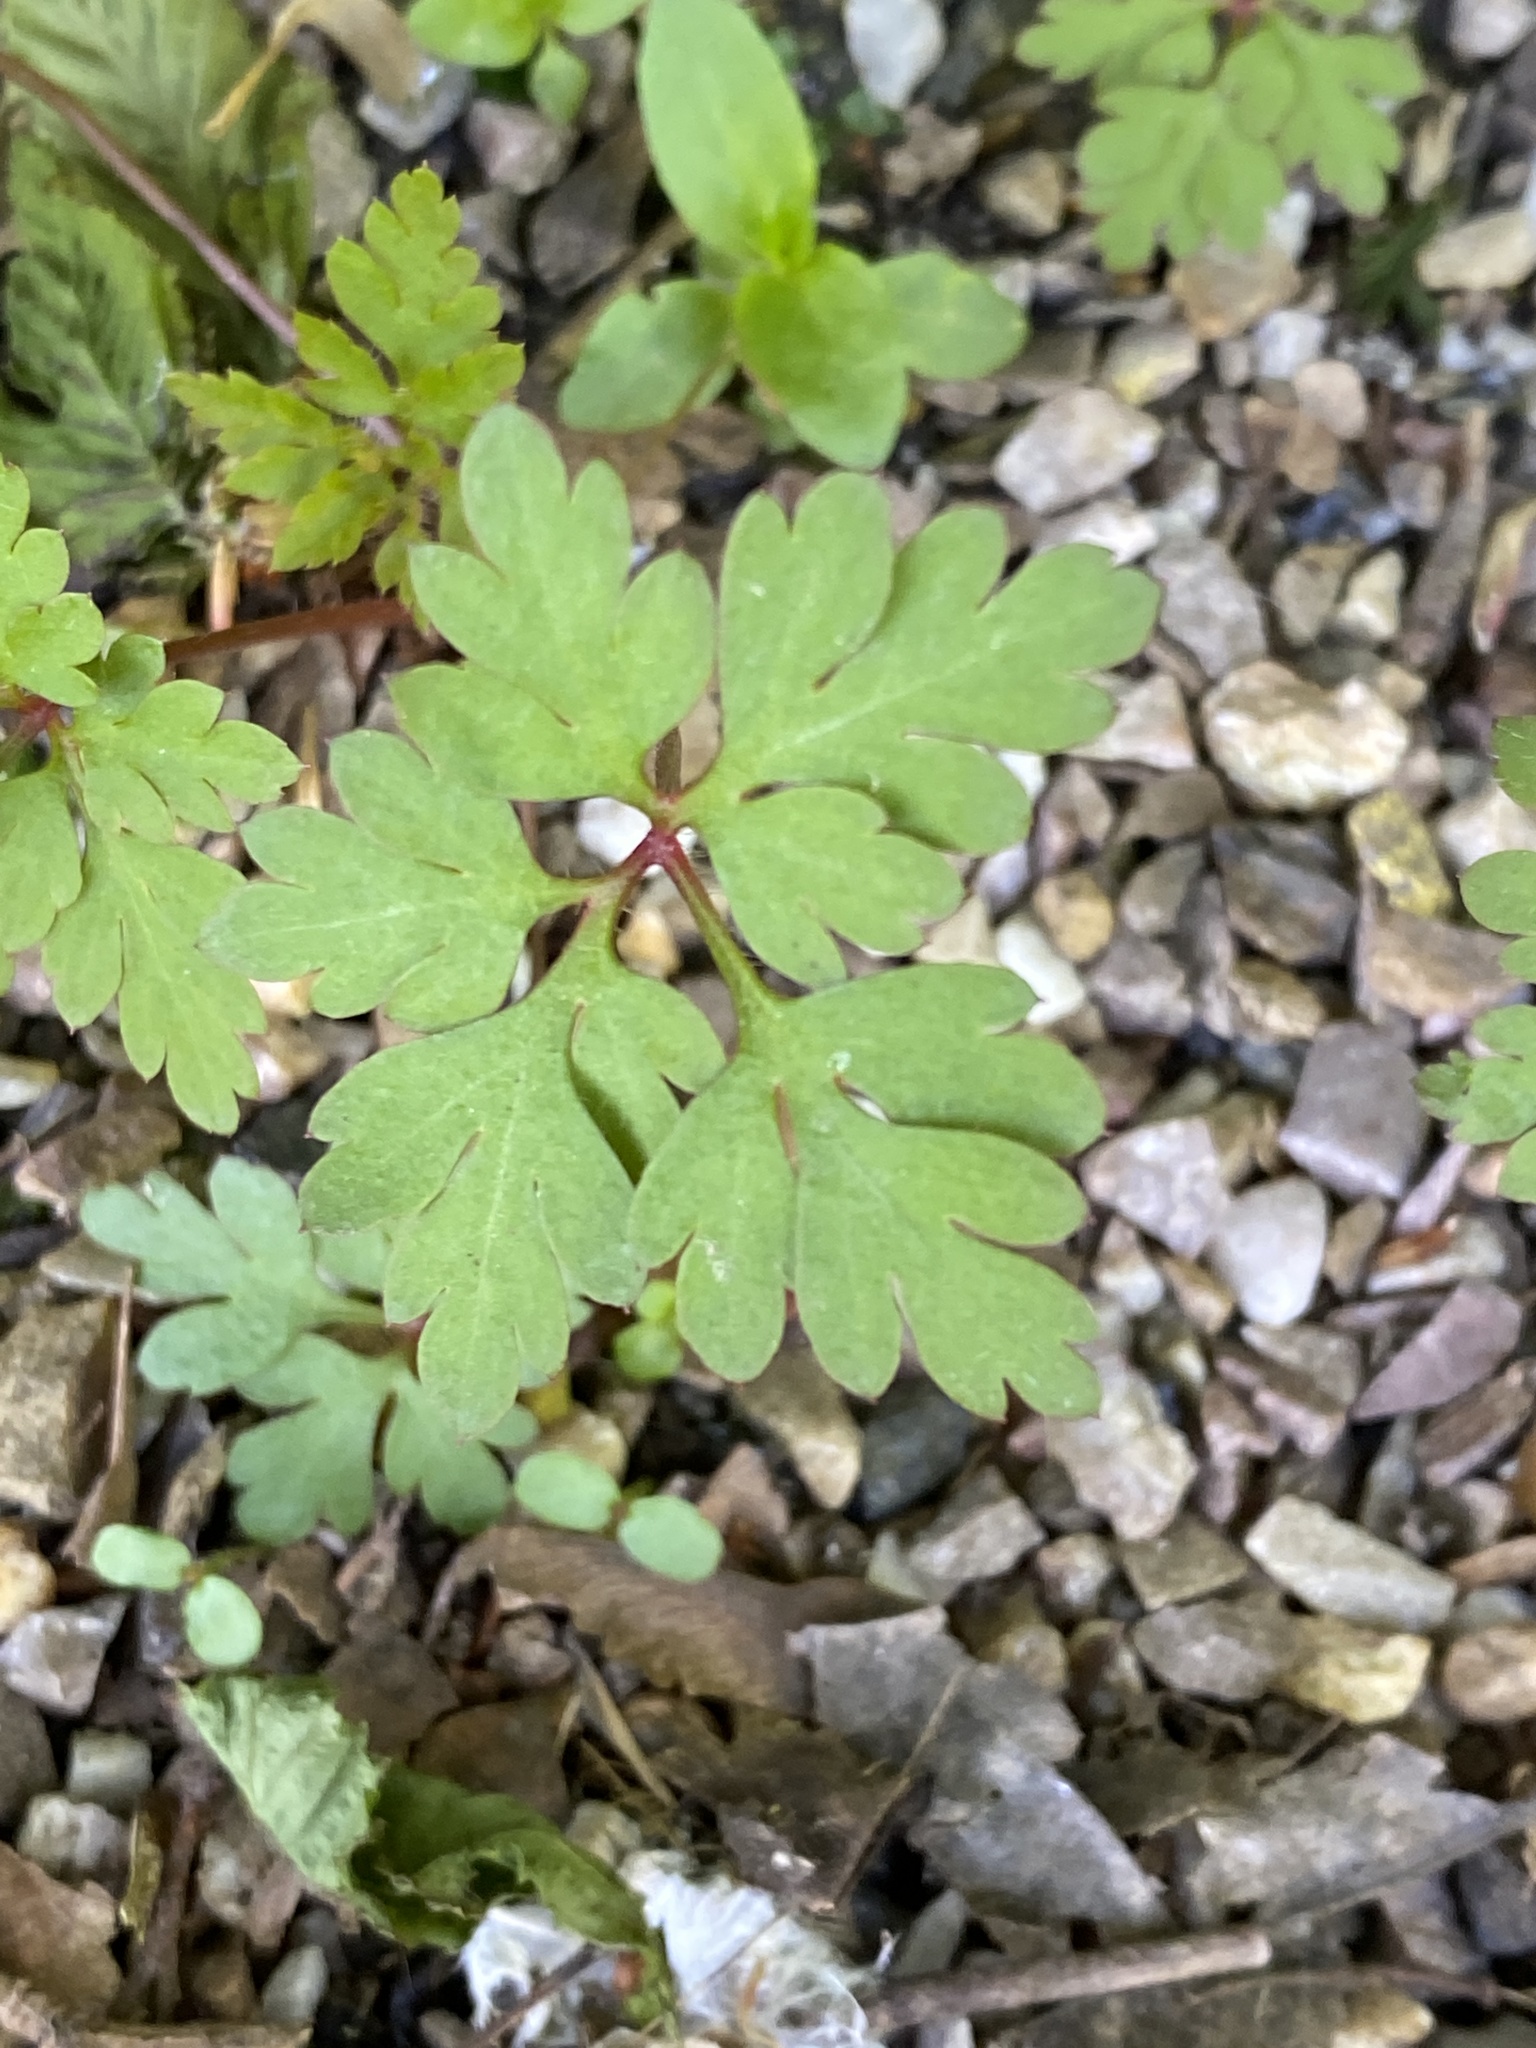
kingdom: Plantae
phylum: Tracheophyta
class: Magnoliopsida
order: Geraniales
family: Geraniaceae
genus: Geranium
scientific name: Geranium robertianum
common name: Herb-robert
